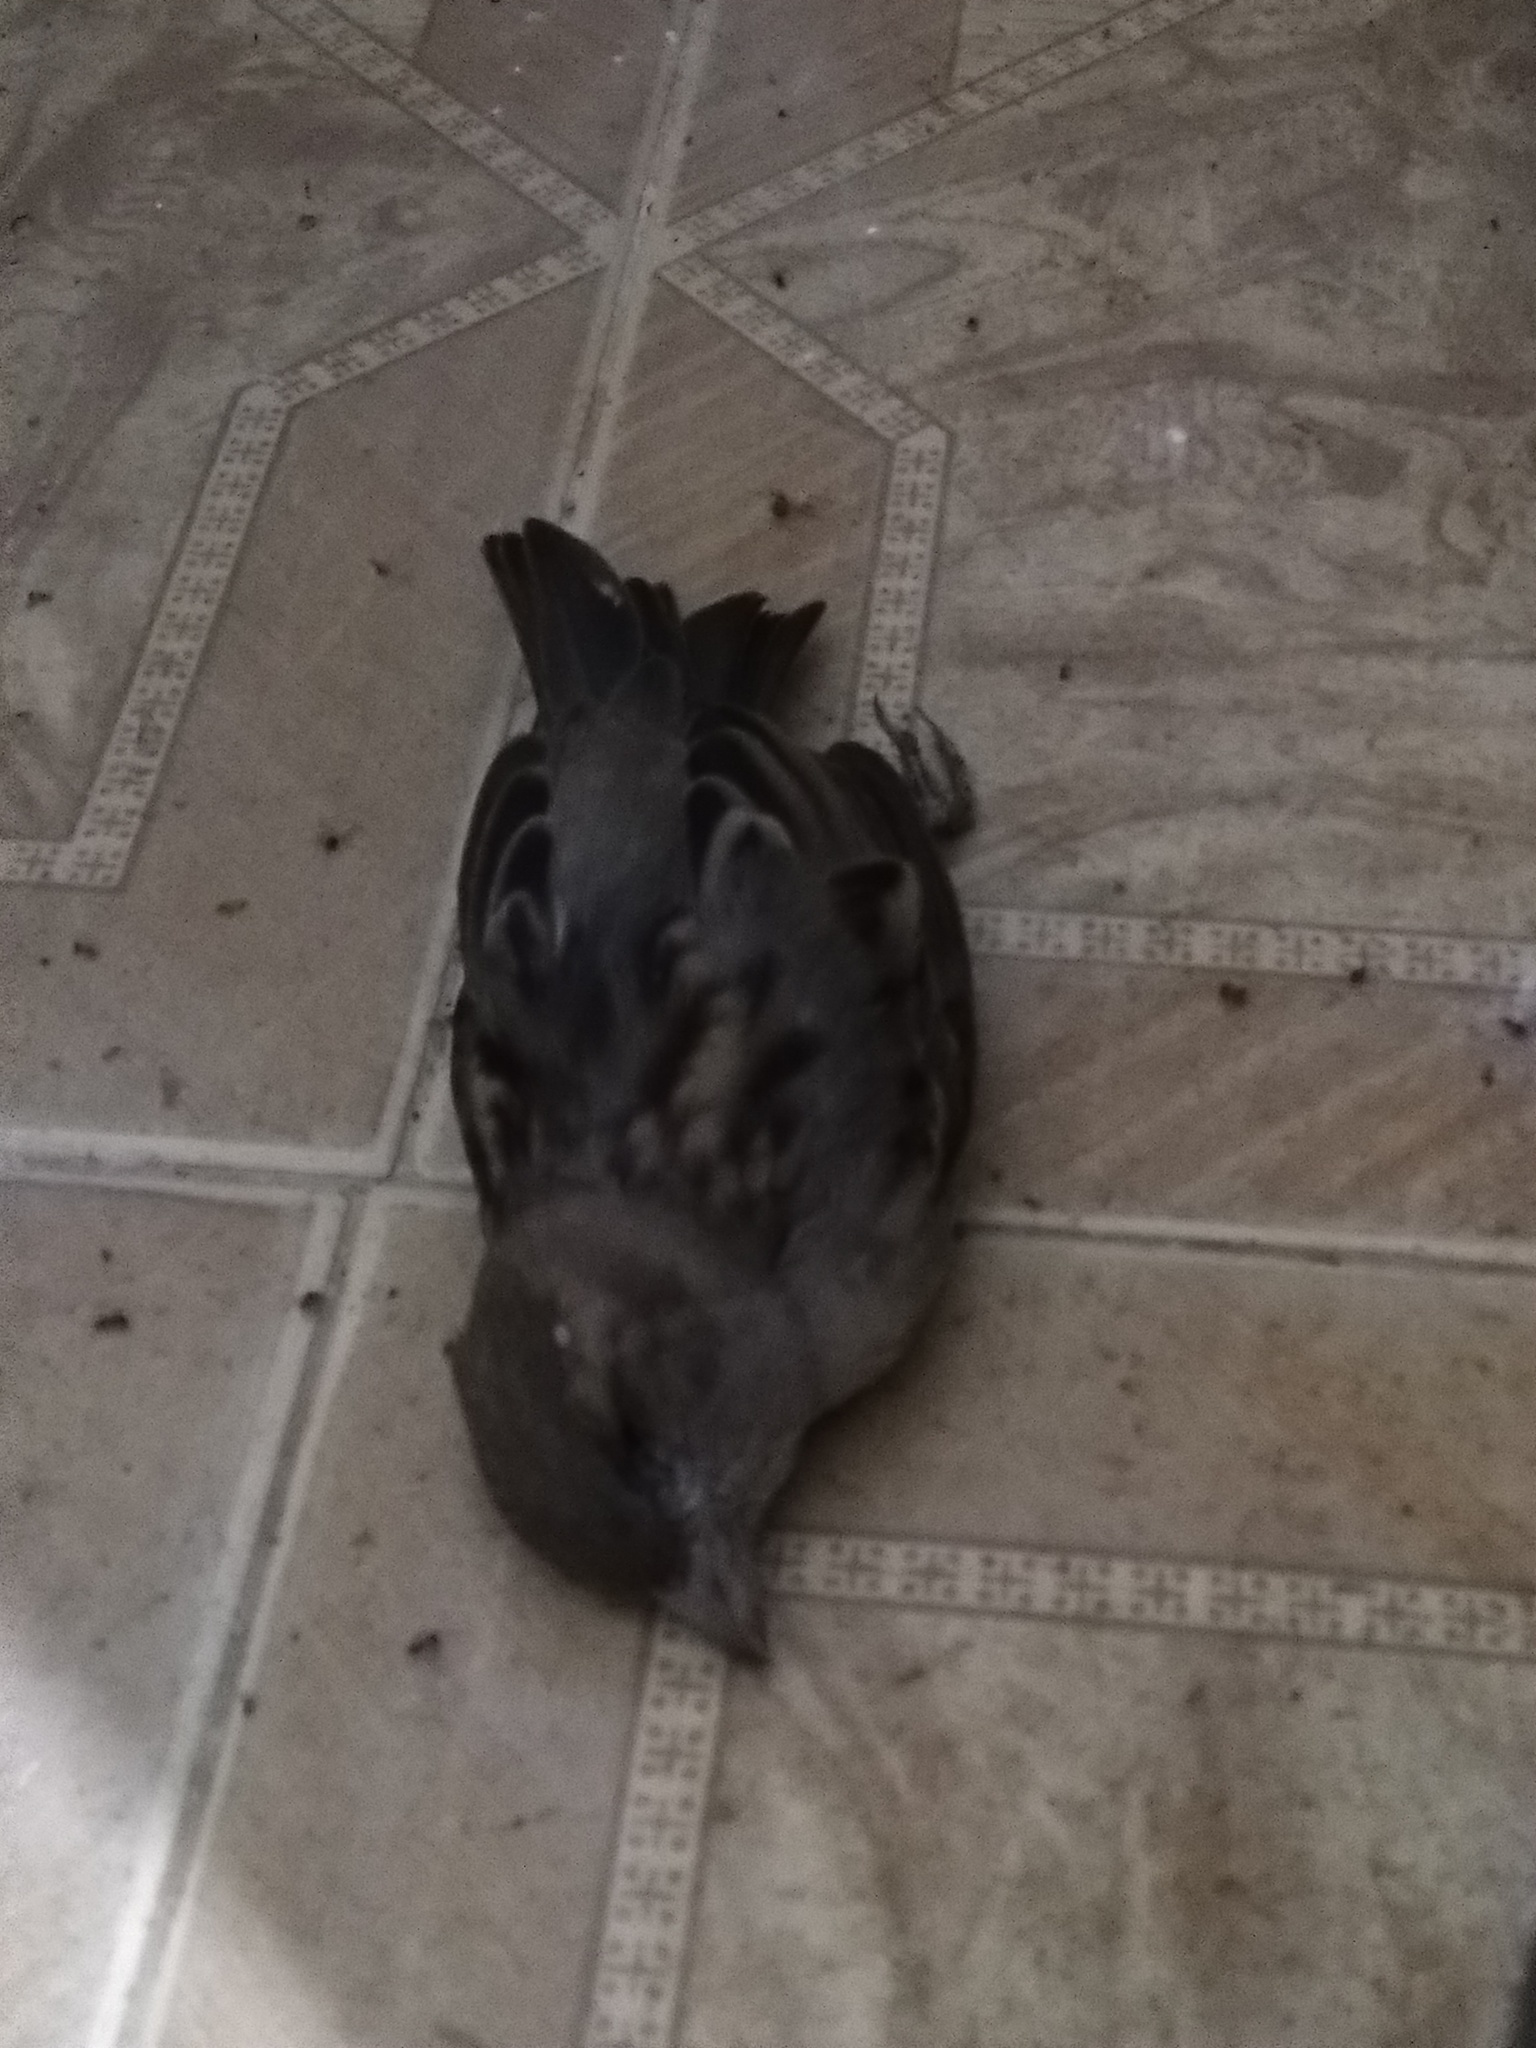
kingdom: Animalia
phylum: Chordata
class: Aves
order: Passeriformes
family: Passeridae
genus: Passer
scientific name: Passer domesticus
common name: House sparrow
